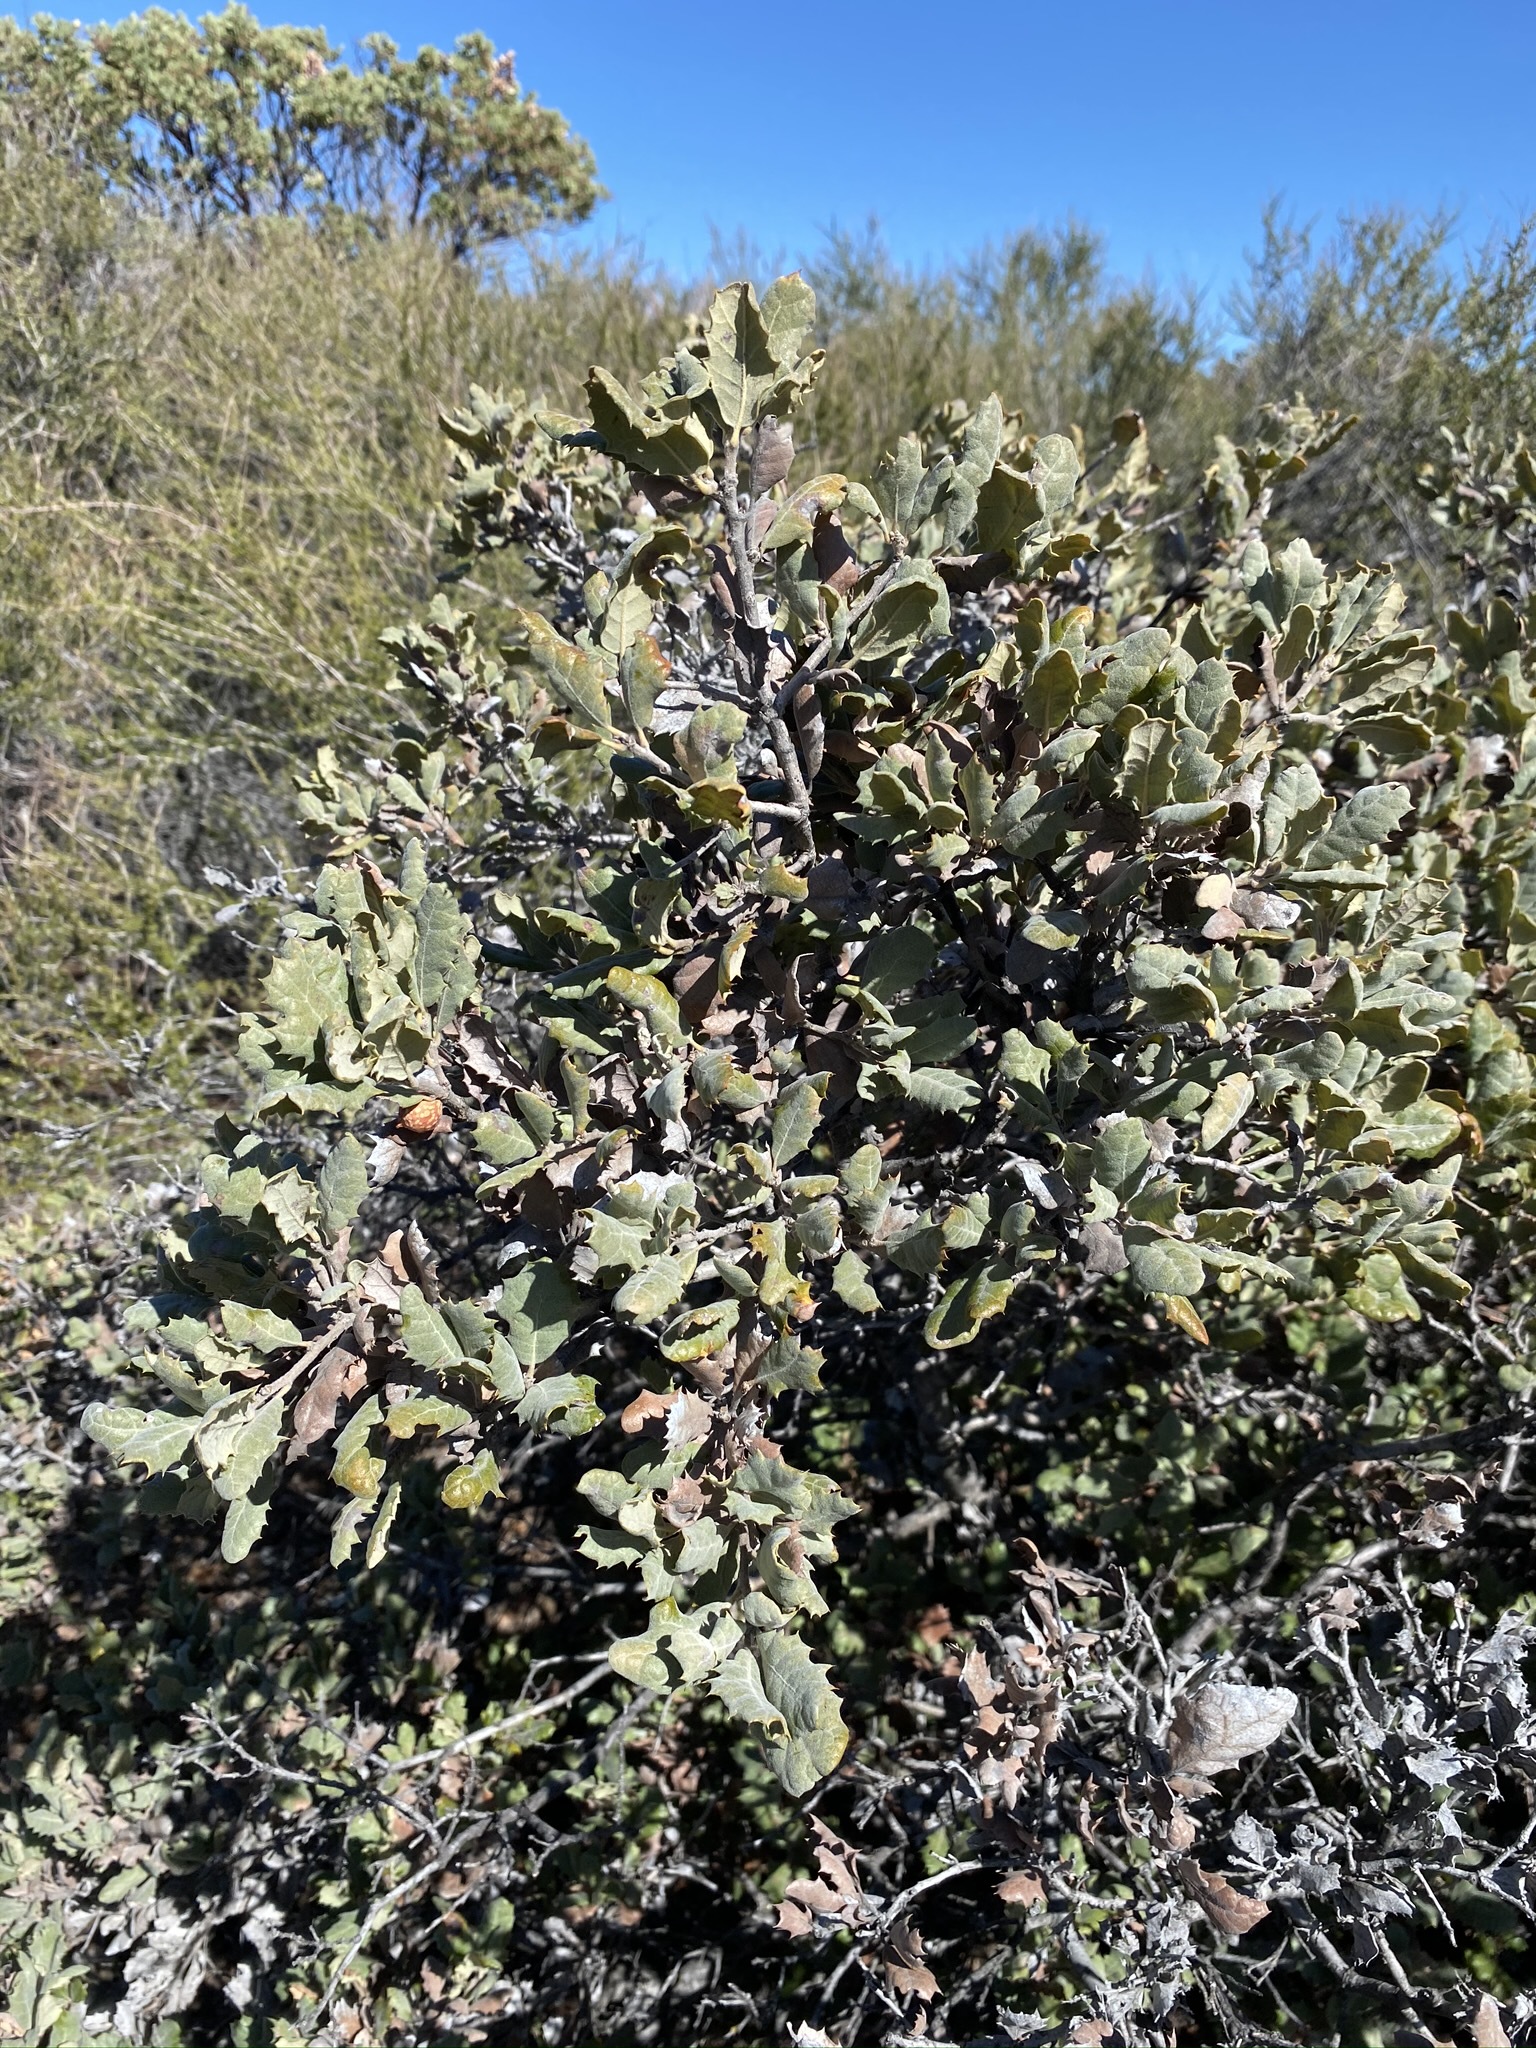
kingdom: Plantae
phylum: Tracheophyta
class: Magnoliopsida
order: Fagales
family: Fagaceae
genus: Quercus
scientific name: Quercus durata
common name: Leather oak
